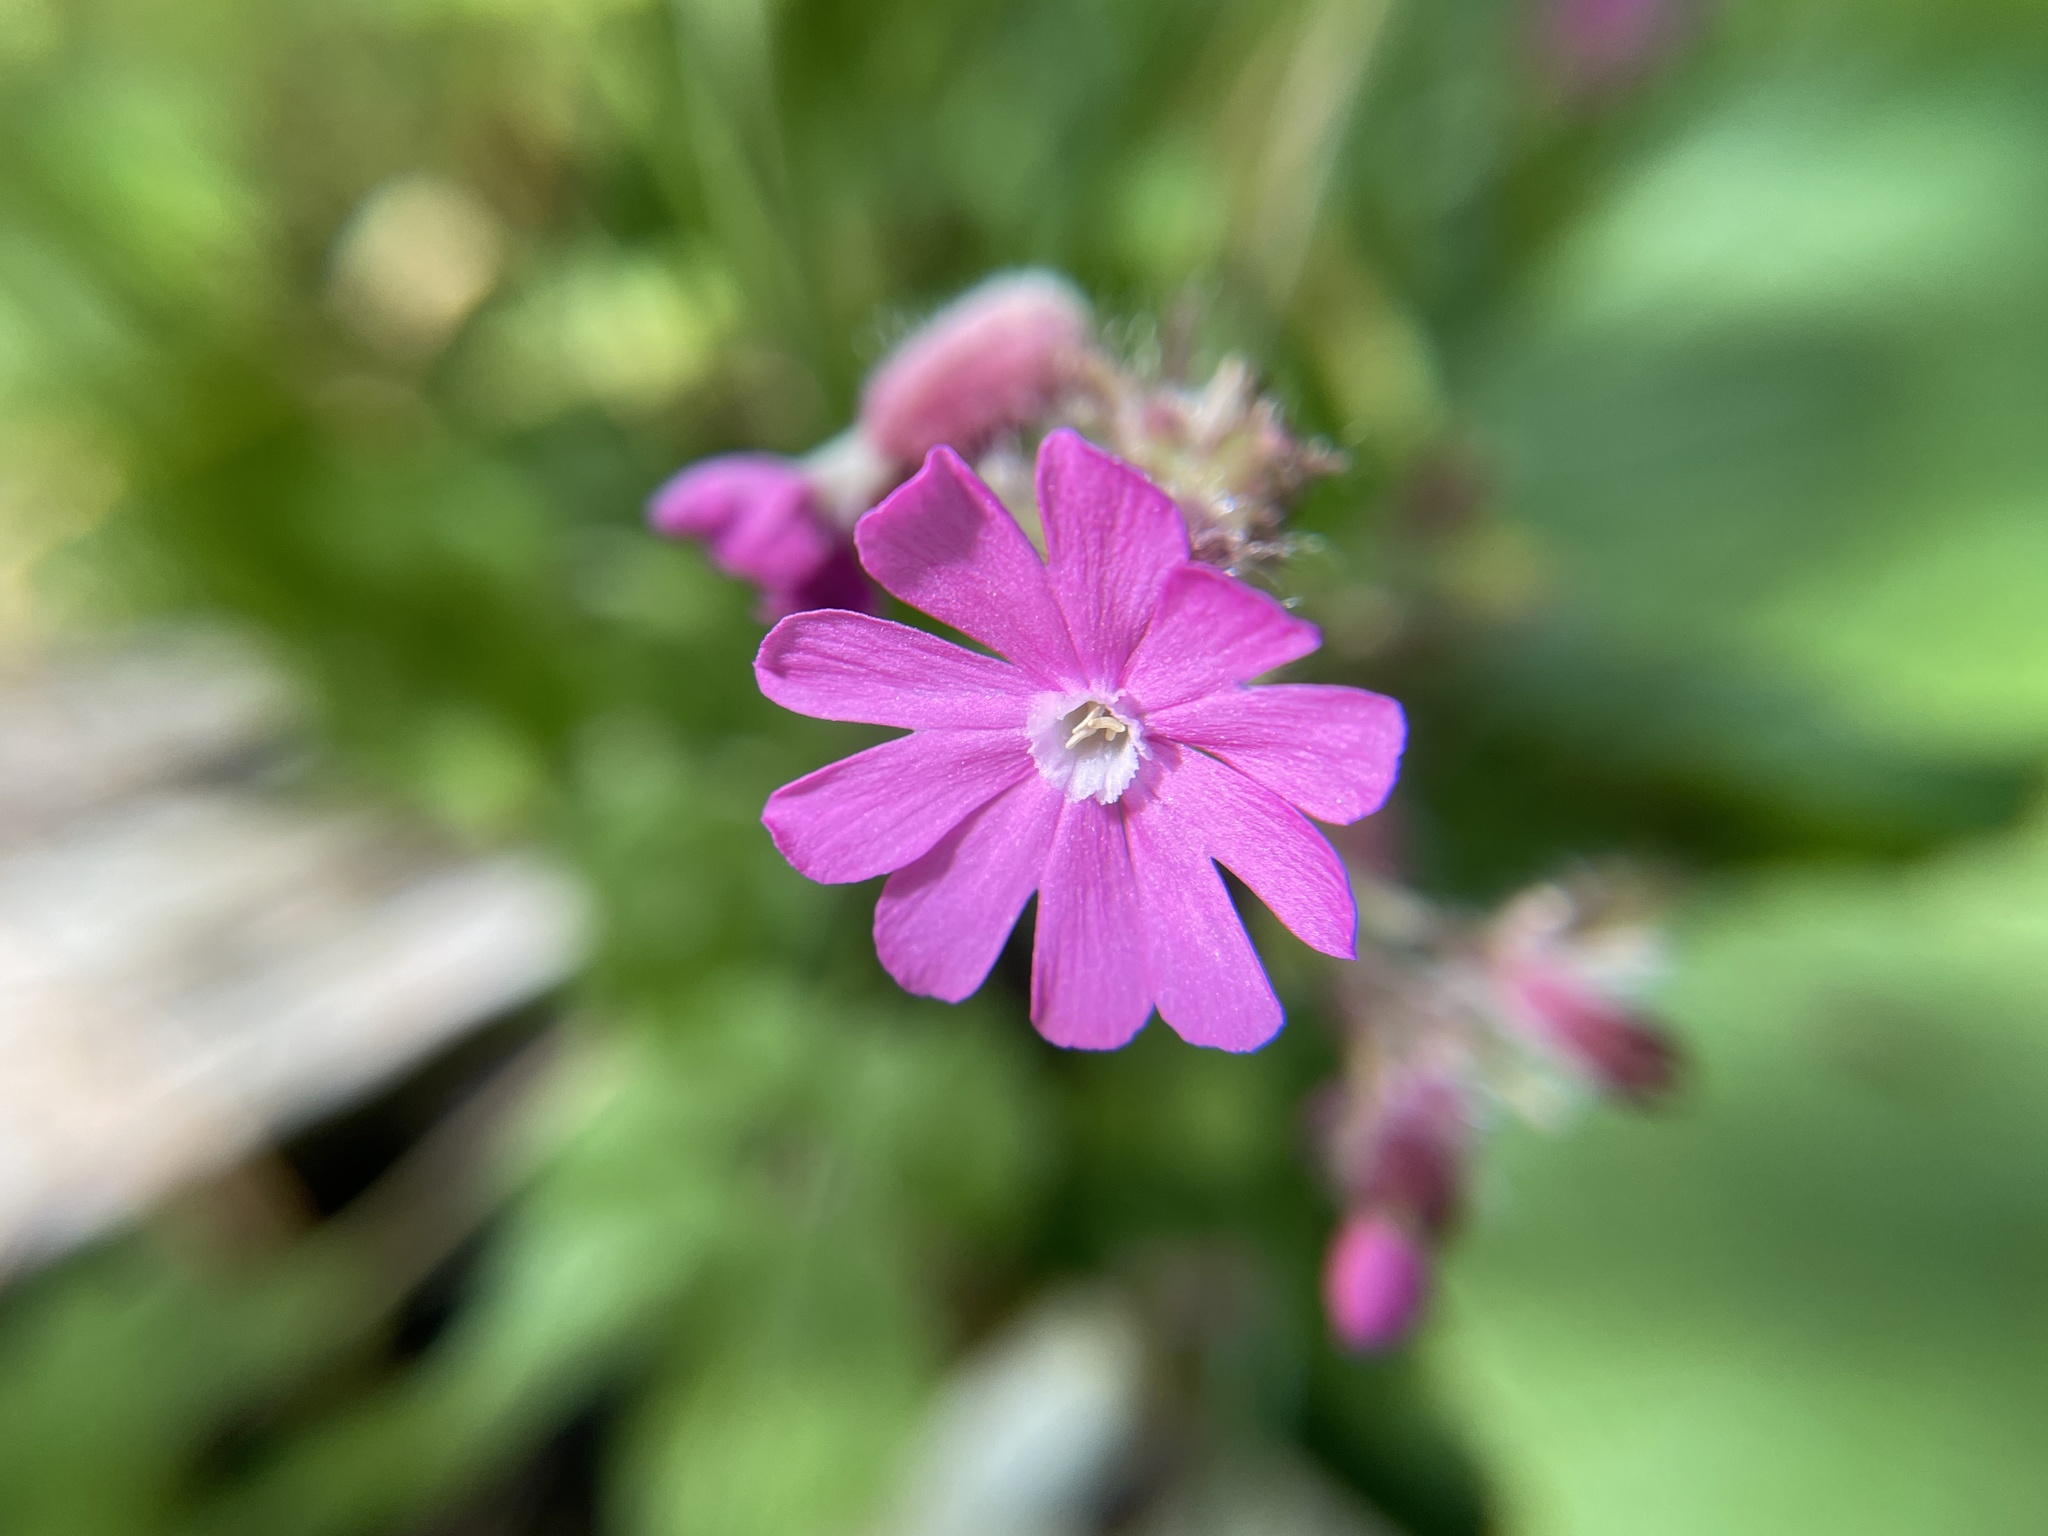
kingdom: Plantae
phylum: Tracheophyta
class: Magnoliopsida
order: Caryophyllales
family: Caryophyllaceae
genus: Silene
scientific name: Silene dioica
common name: Red campion
